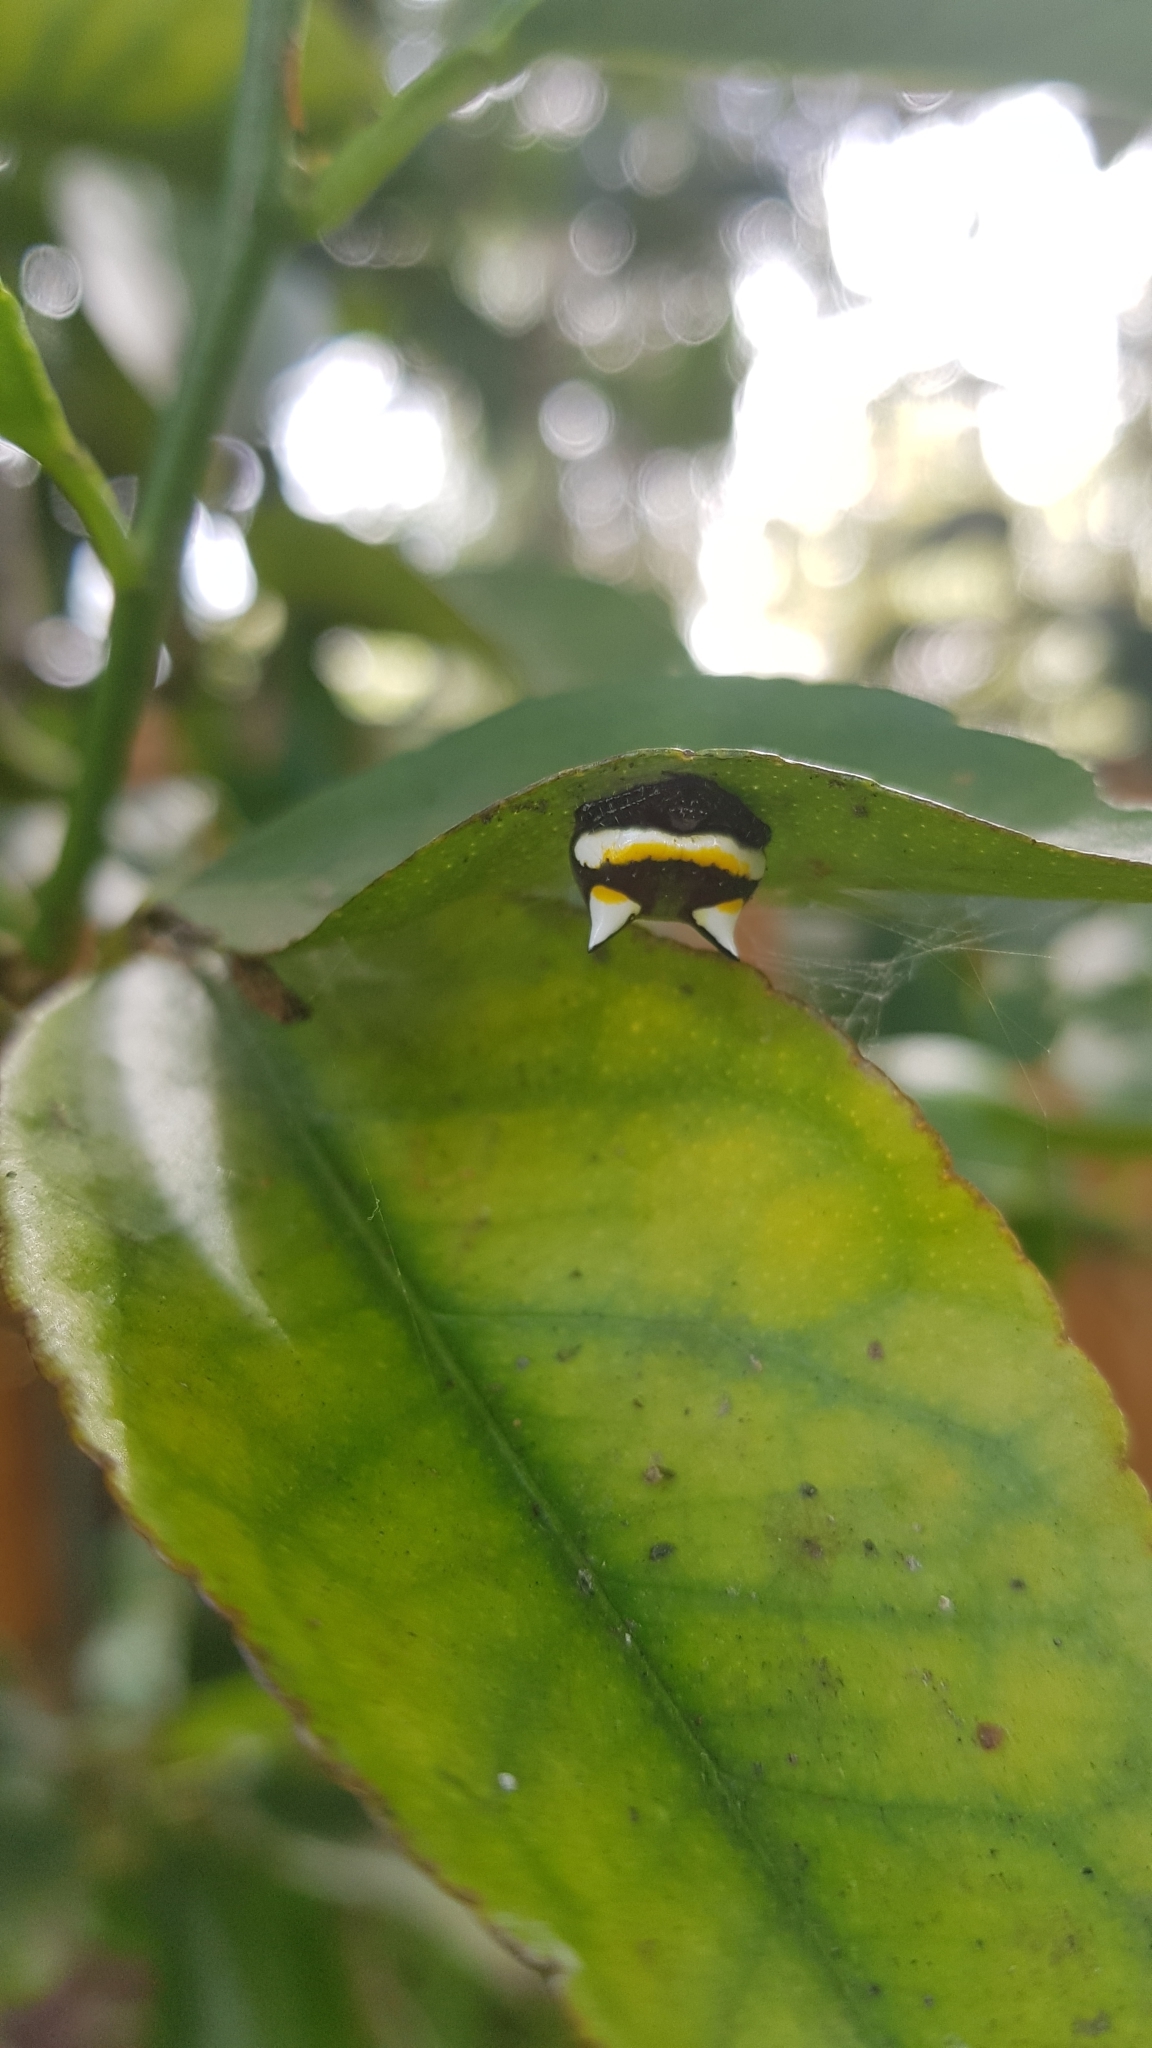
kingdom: Animalia
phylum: Arthropoda
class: Arachnida
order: Araneae
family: Araneidae
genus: Poecilopachys
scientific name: Poecilopachys australasia
